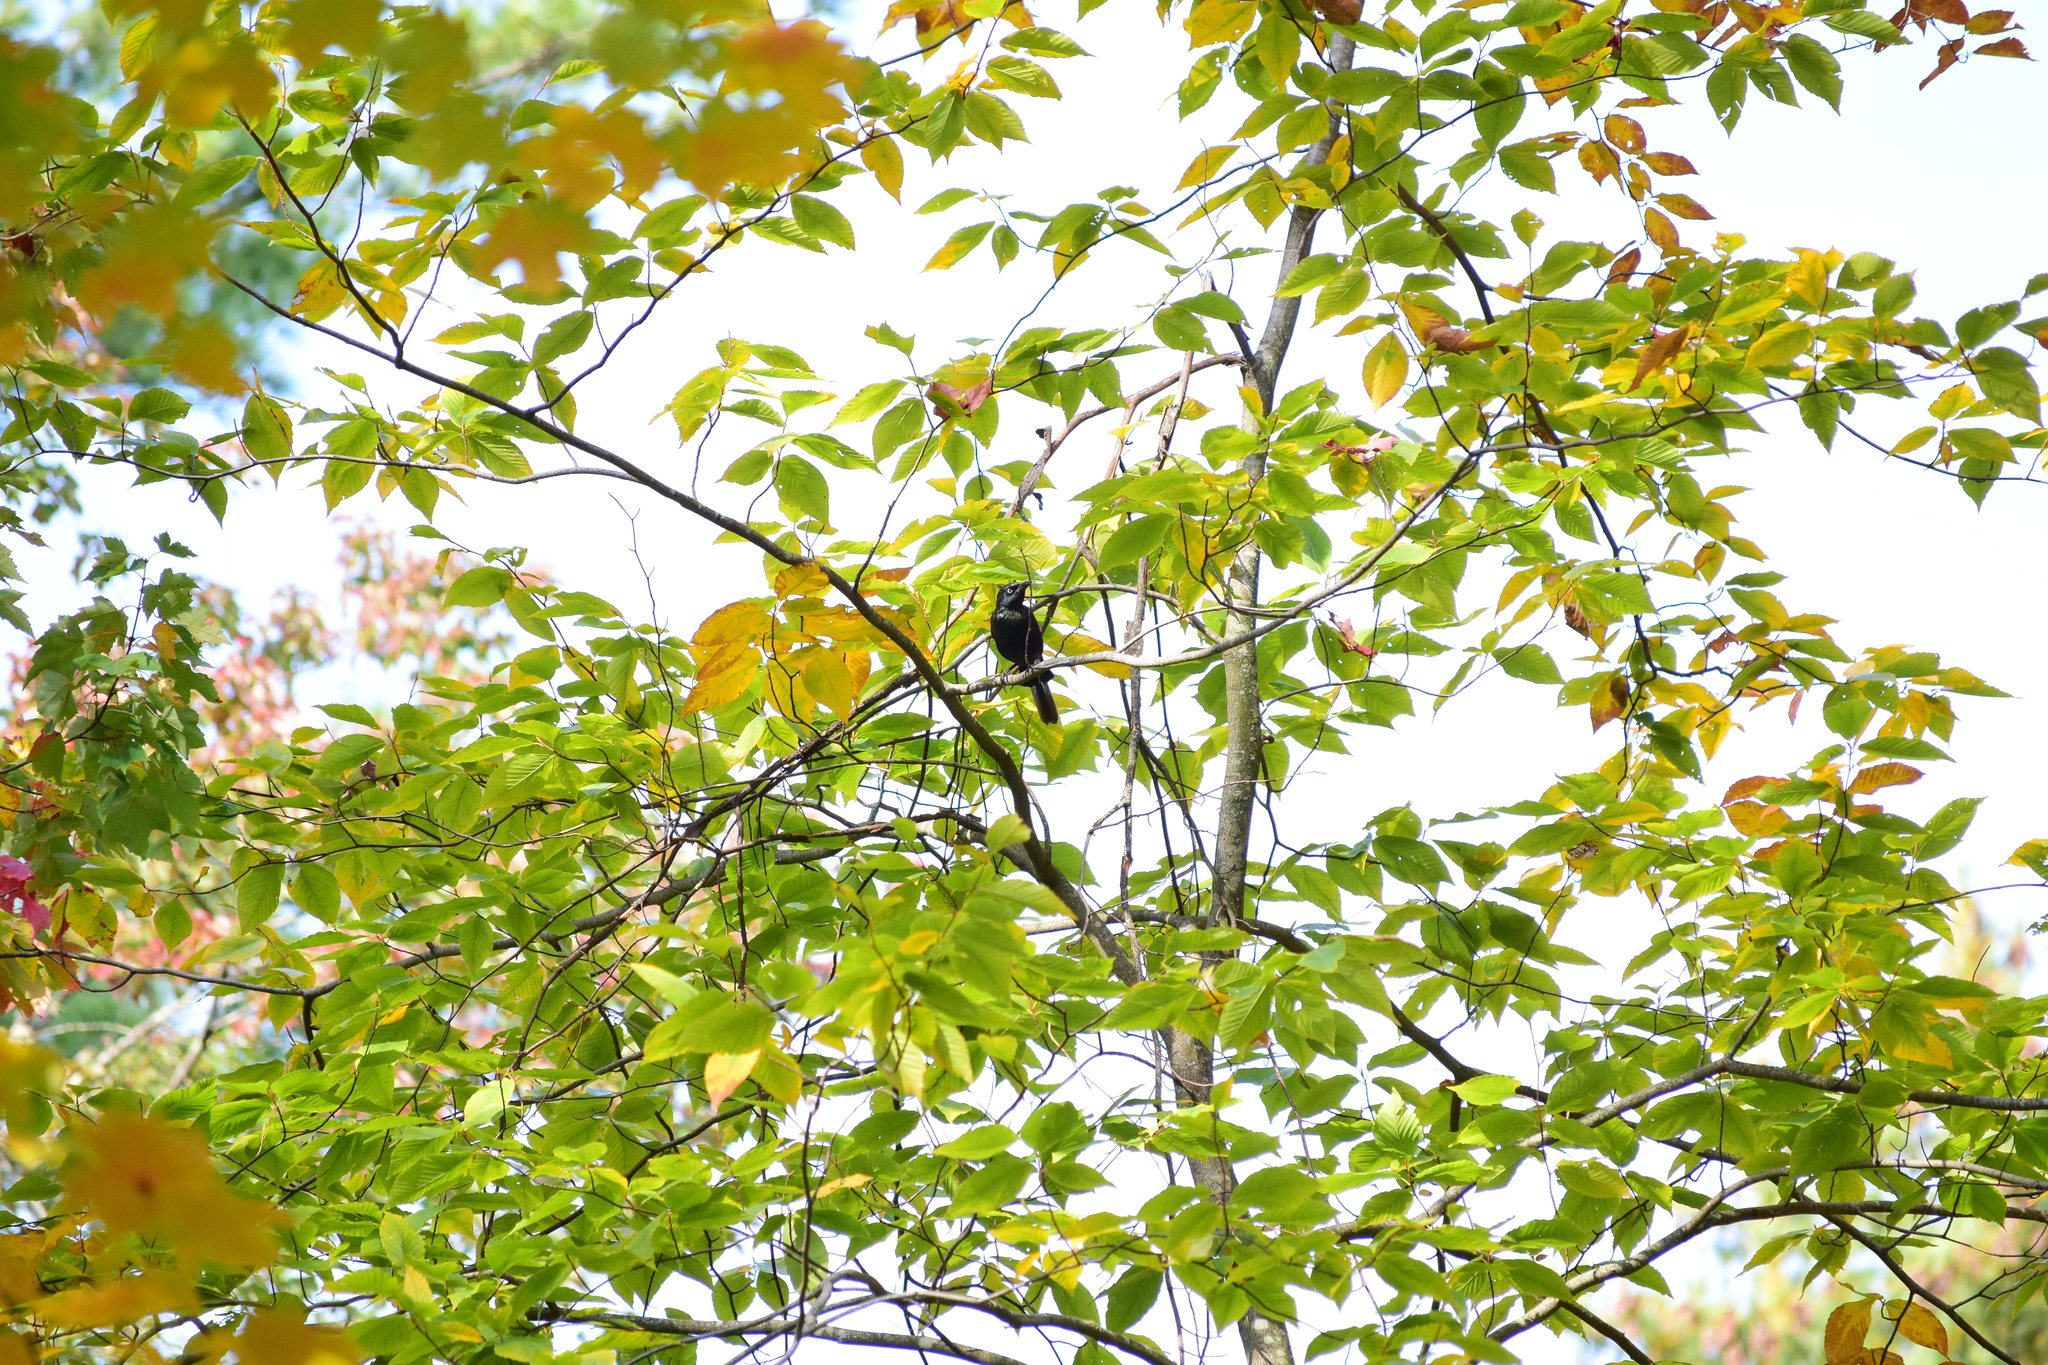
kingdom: Animalia
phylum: Chordata
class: Aves
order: Passeriformes
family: Icteridae
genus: Quiscalus
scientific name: Quiscalus quiscula
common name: Common grackle
